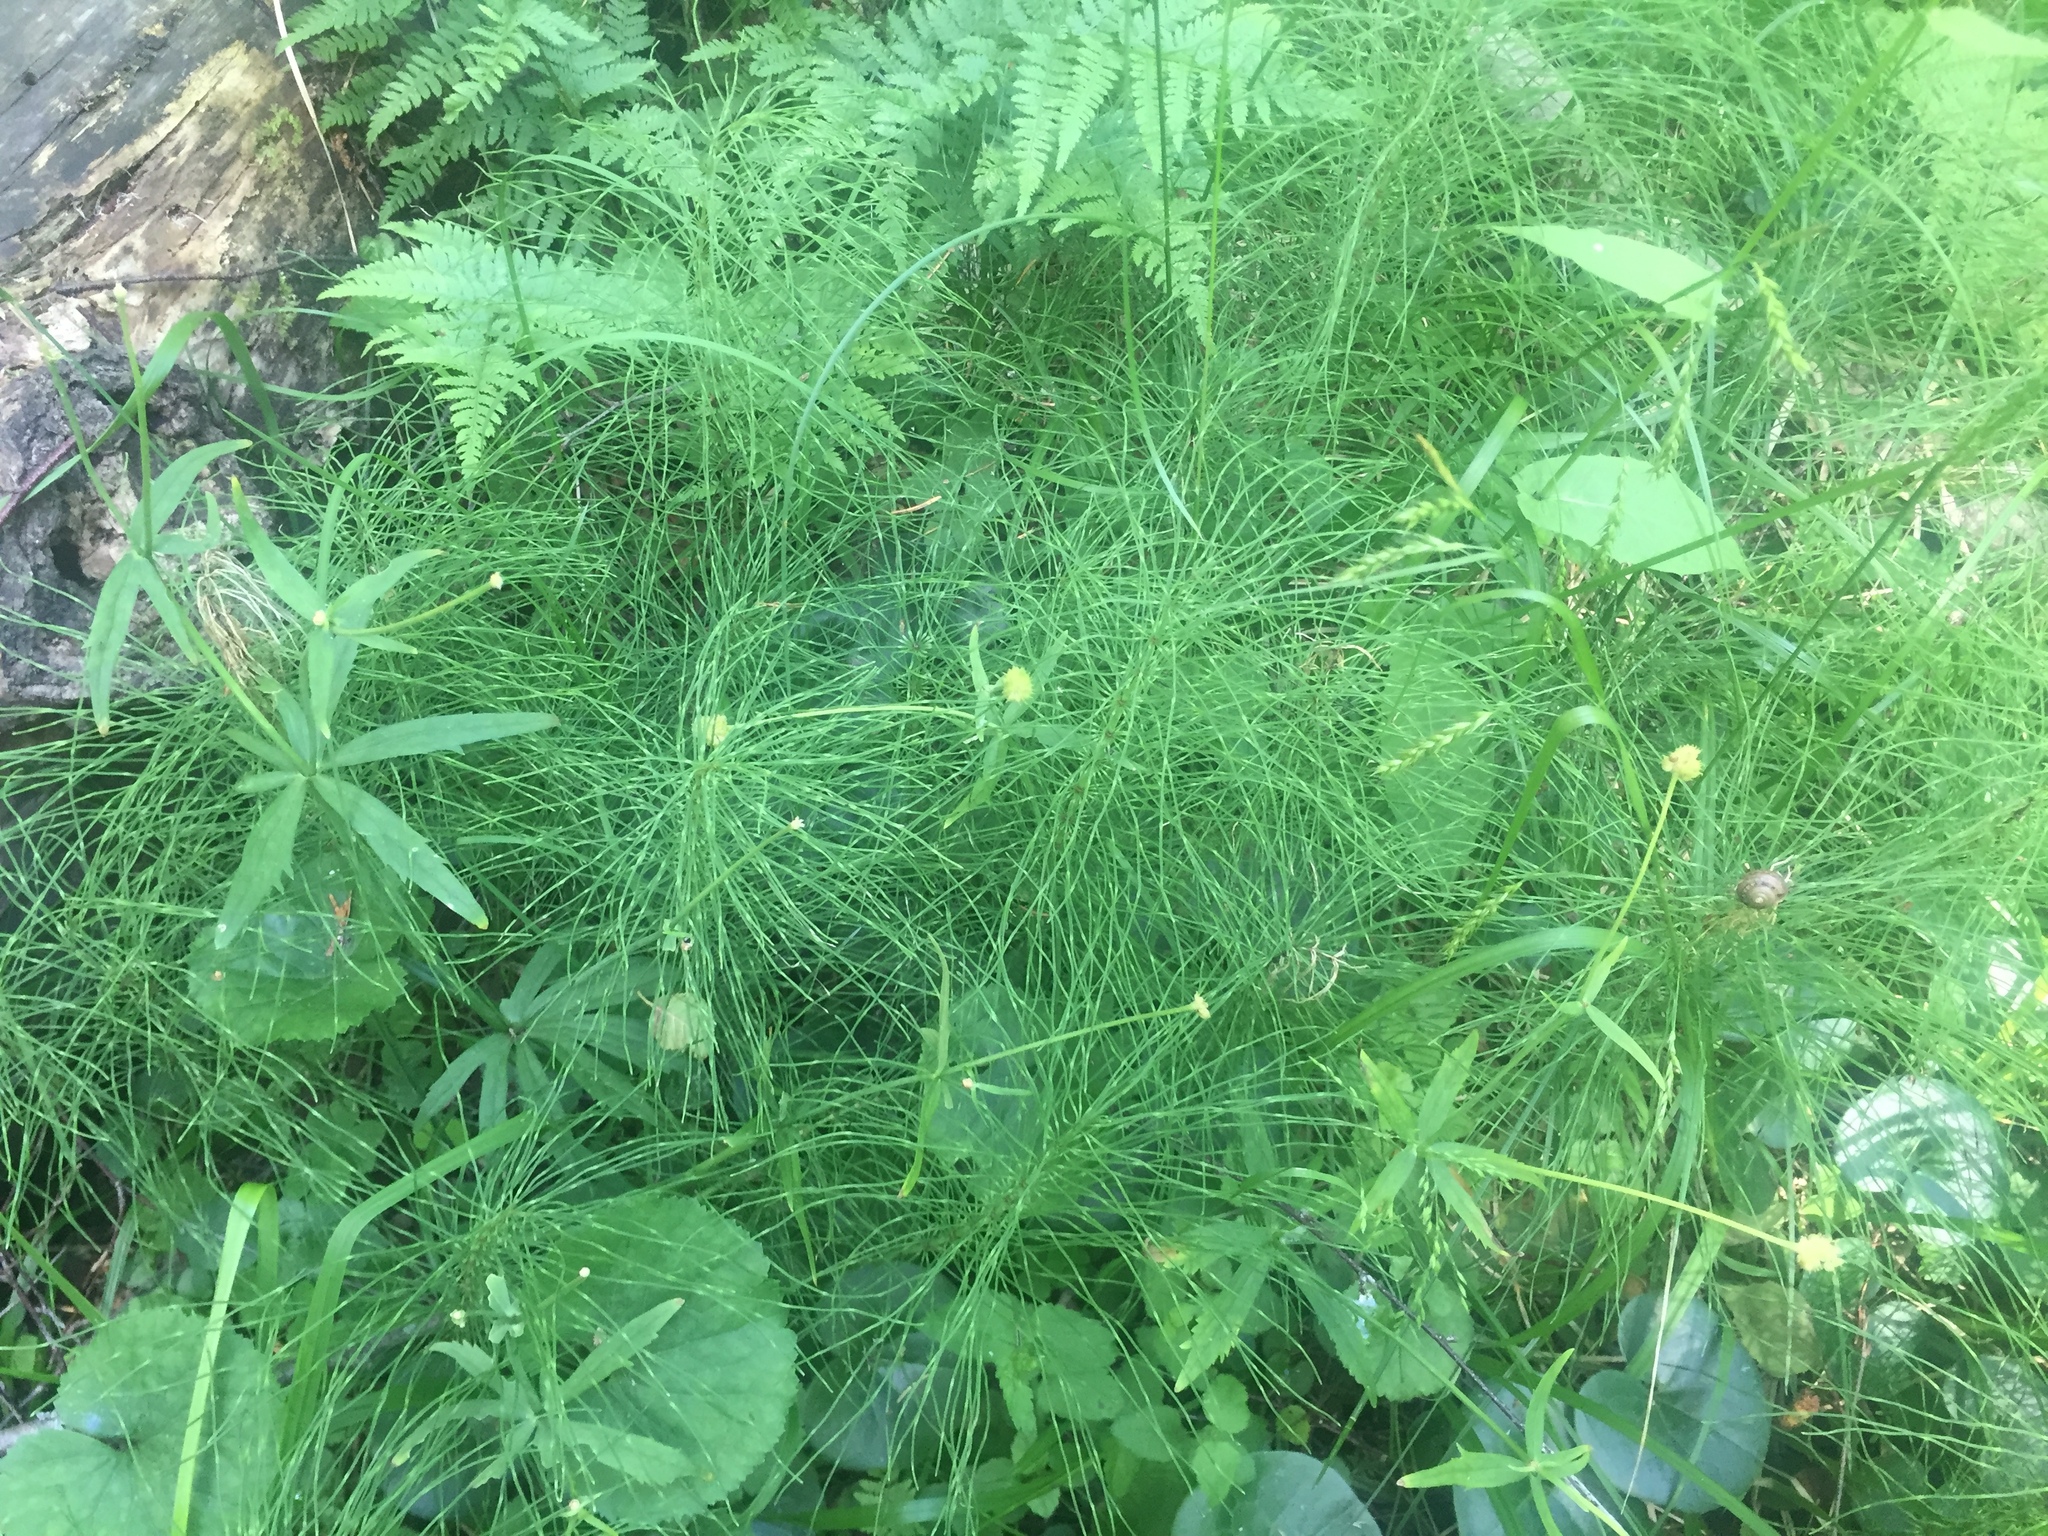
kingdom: Plantae
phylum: Tracheophyta
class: Polypodiopsida
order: Equisetales
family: Equisetaceae
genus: Equisetum
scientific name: Equisetum pratense
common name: Meadow horsetail
